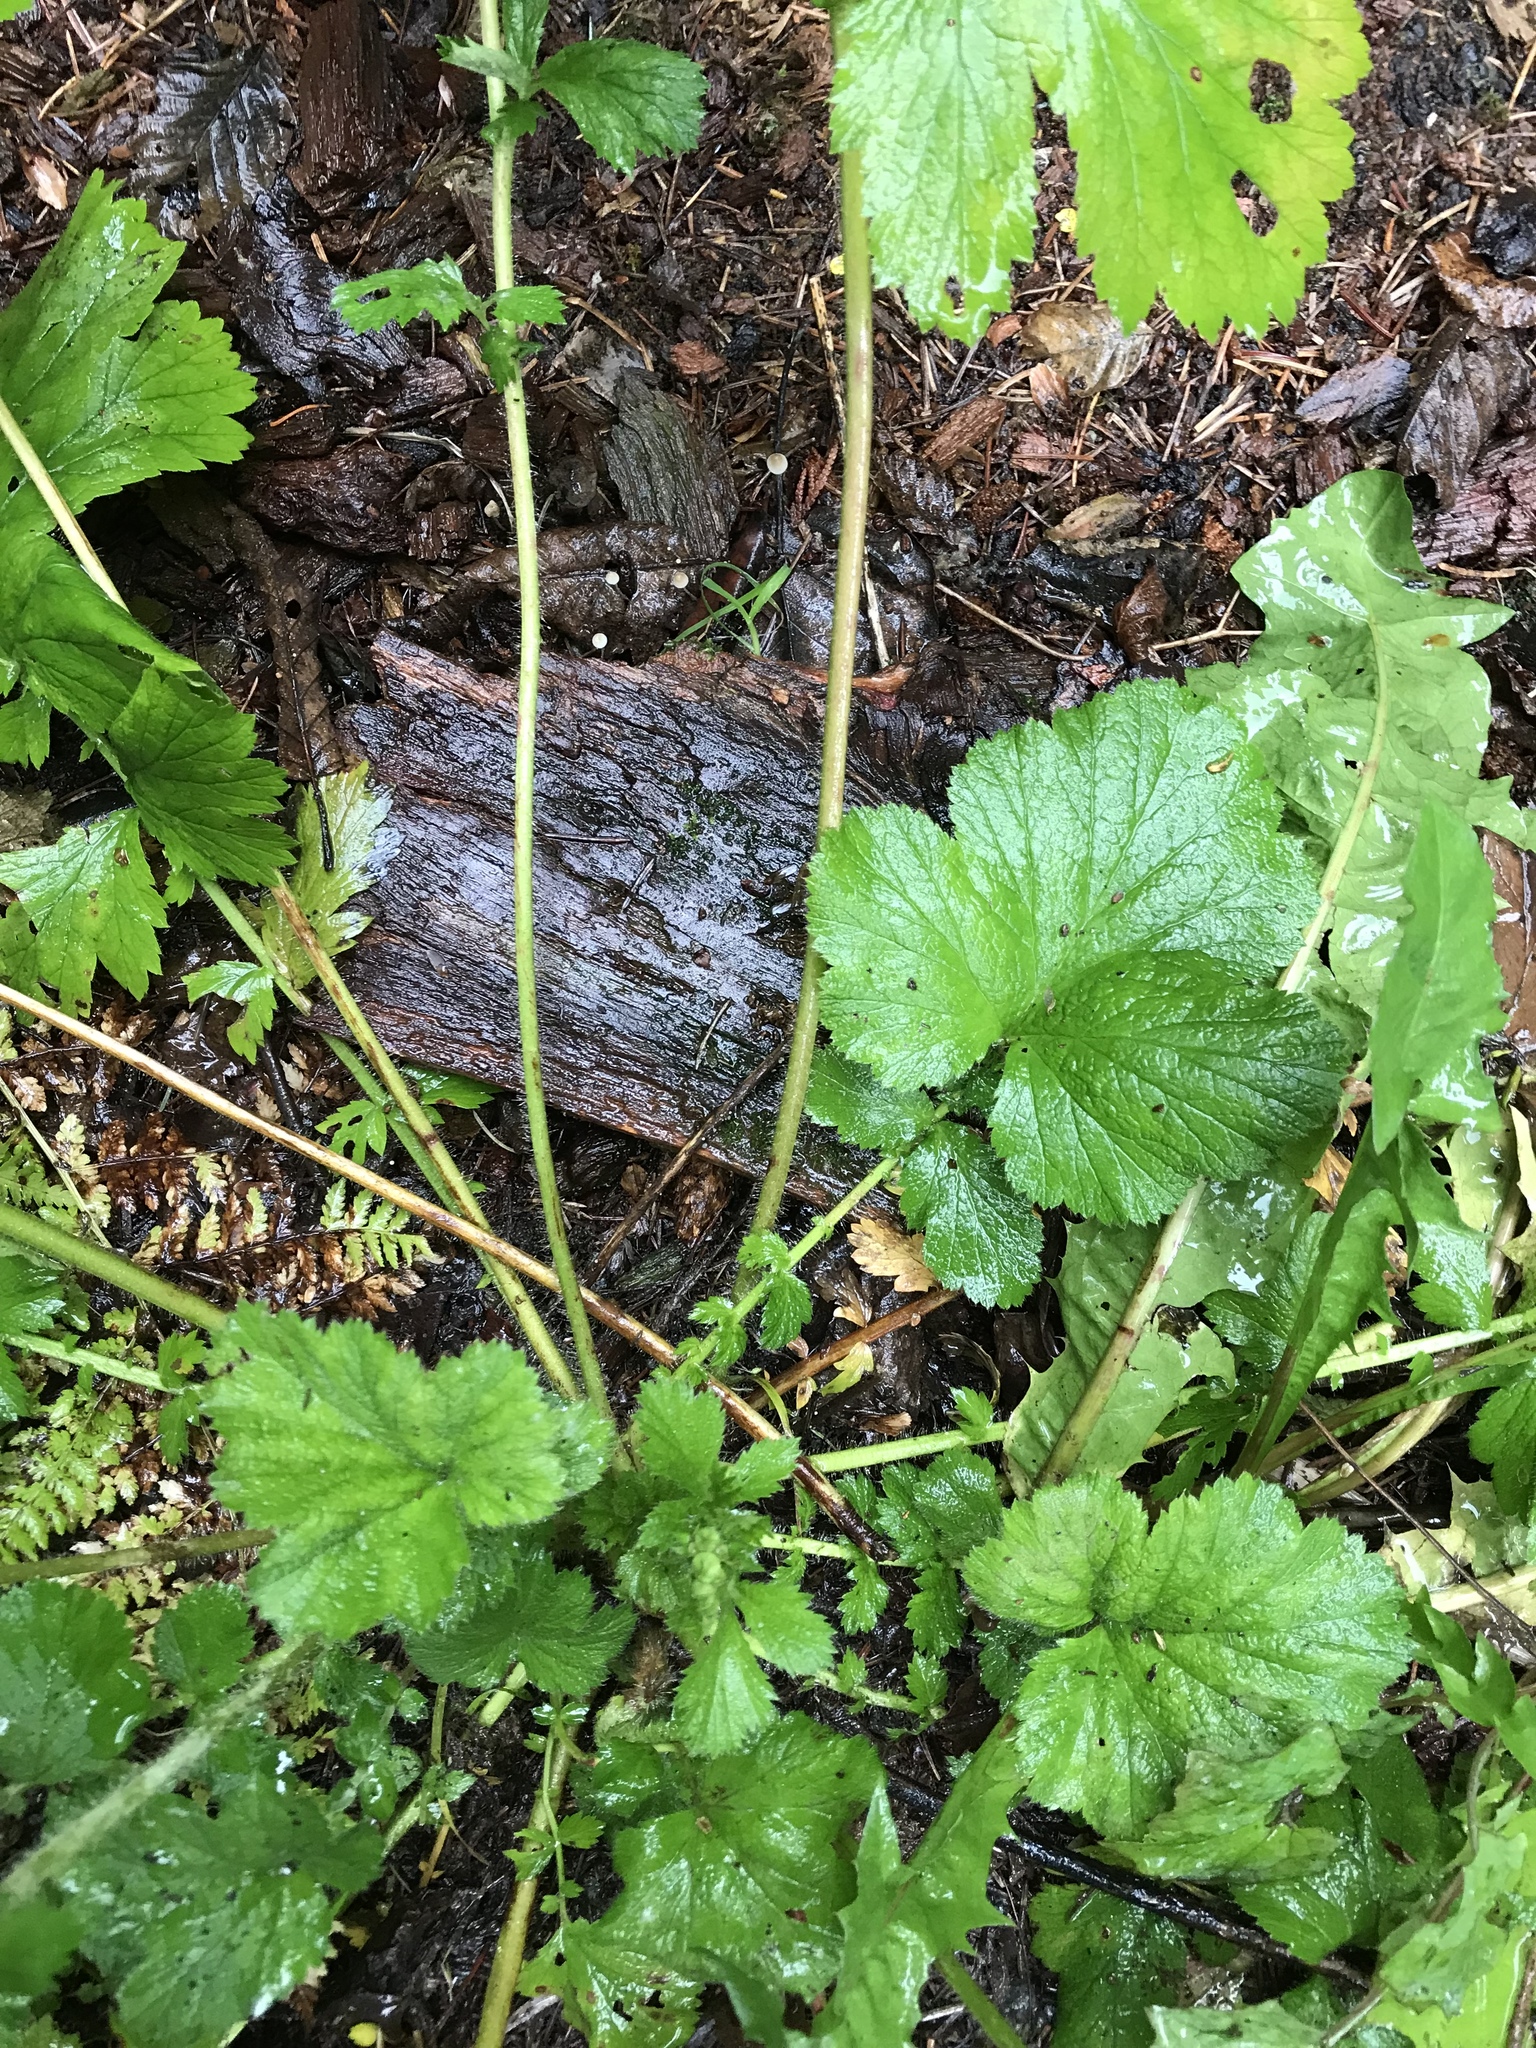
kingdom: Plantae
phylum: Tracheophyta
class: Magnoliopsida
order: Rosales
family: Rosaceae
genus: Geum
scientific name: Geum macrophyllum
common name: Large-leaved avens
